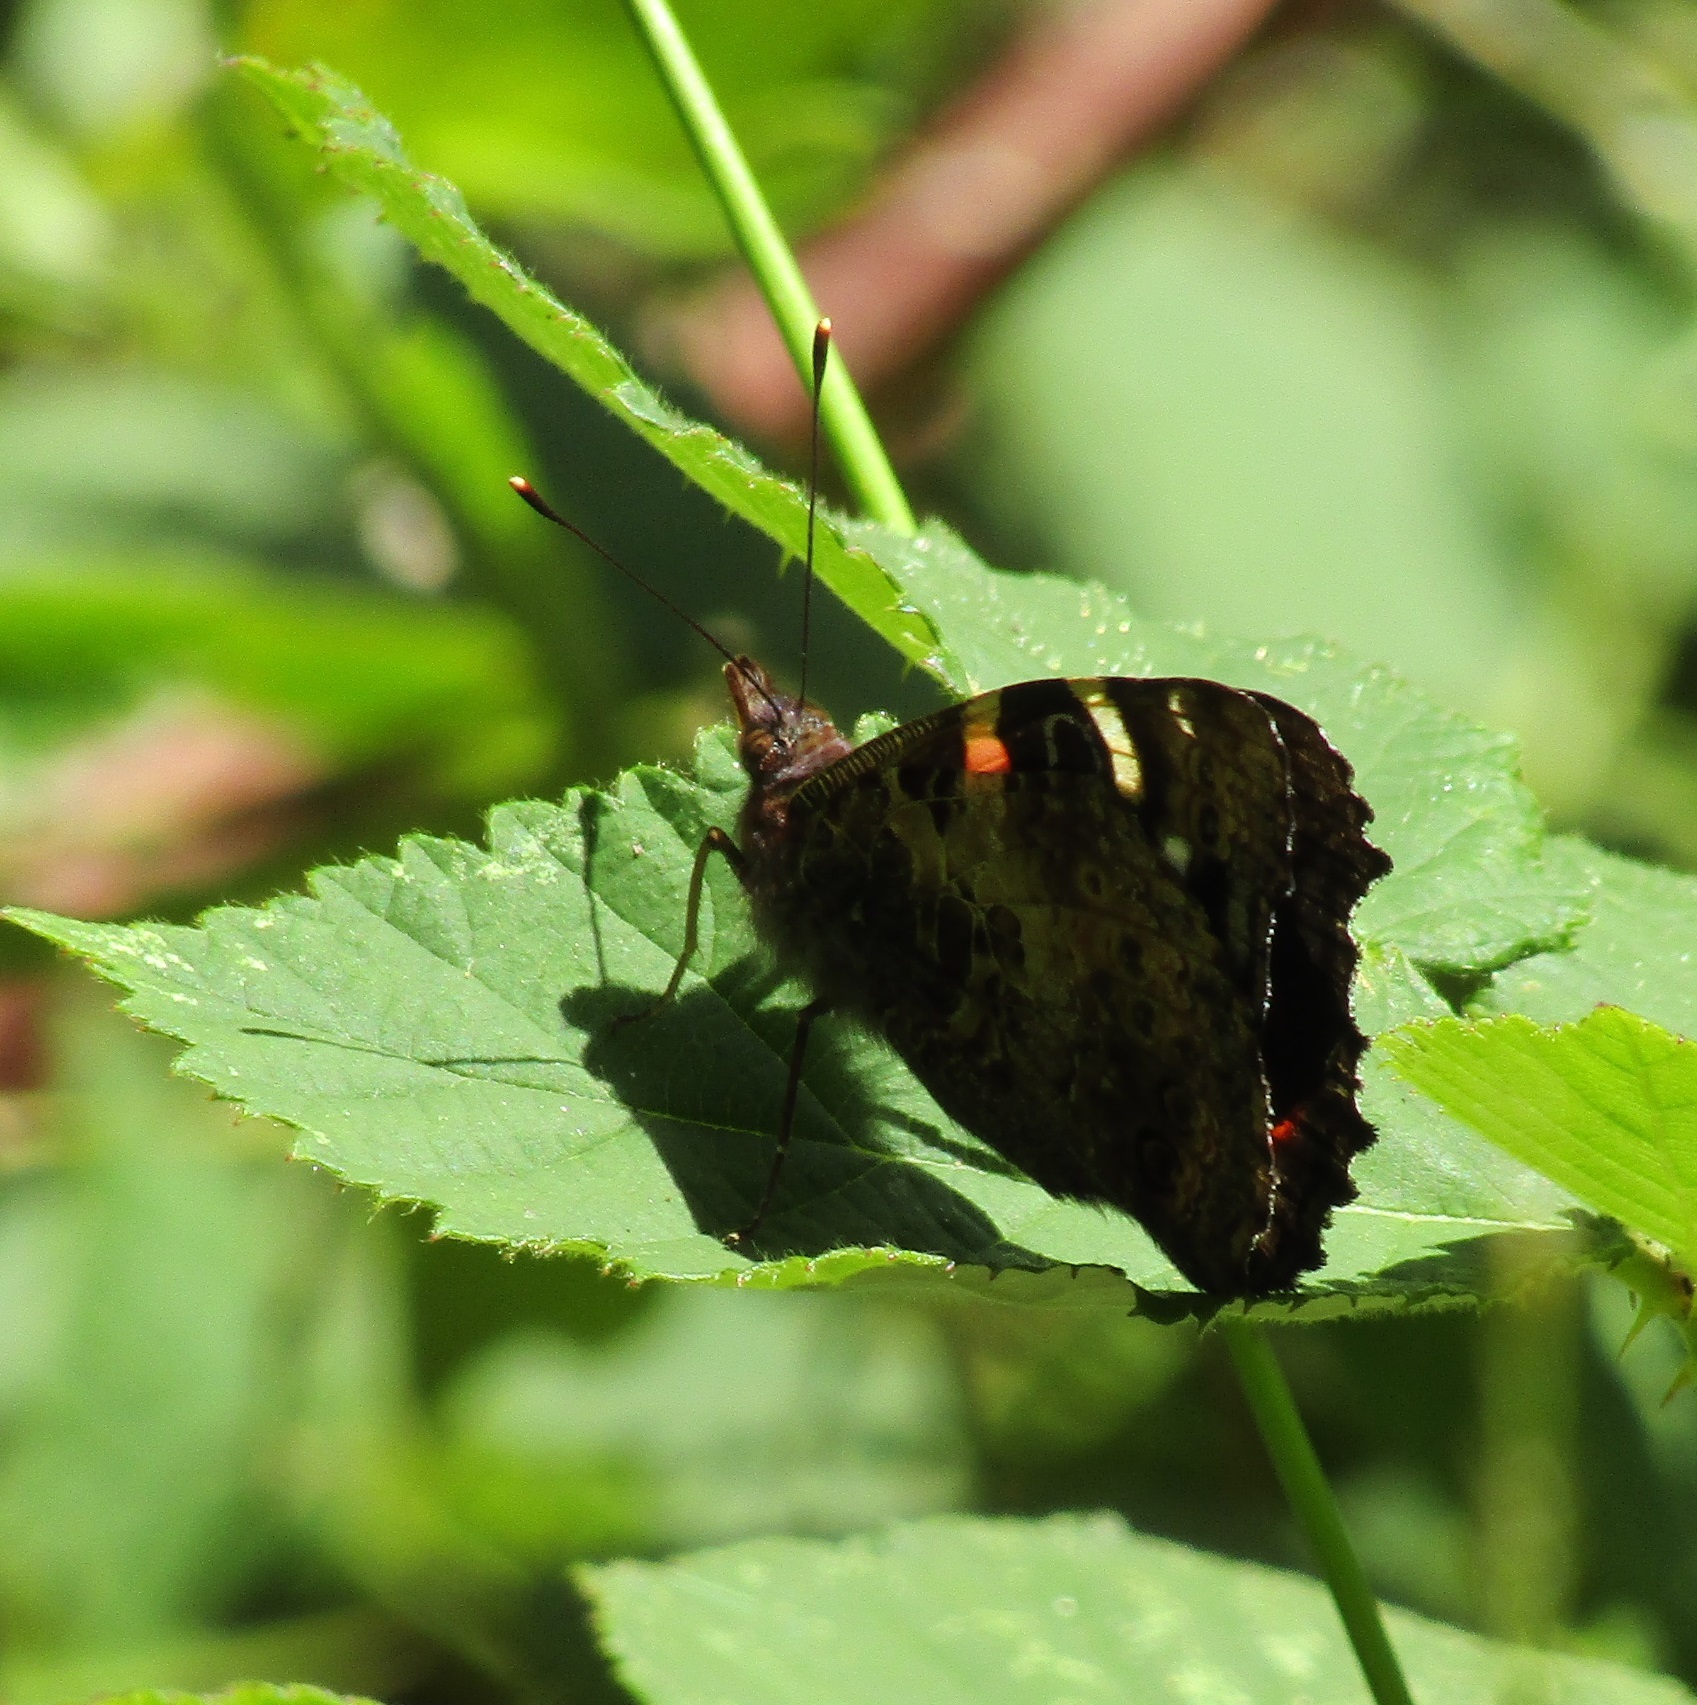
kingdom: Animalia
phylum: Arthropoda
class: Insecta
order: Lepidoptera
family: Nymphalidae
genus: Vanessa
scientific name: Vanessa gonerilla
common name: New zealand red admiral
